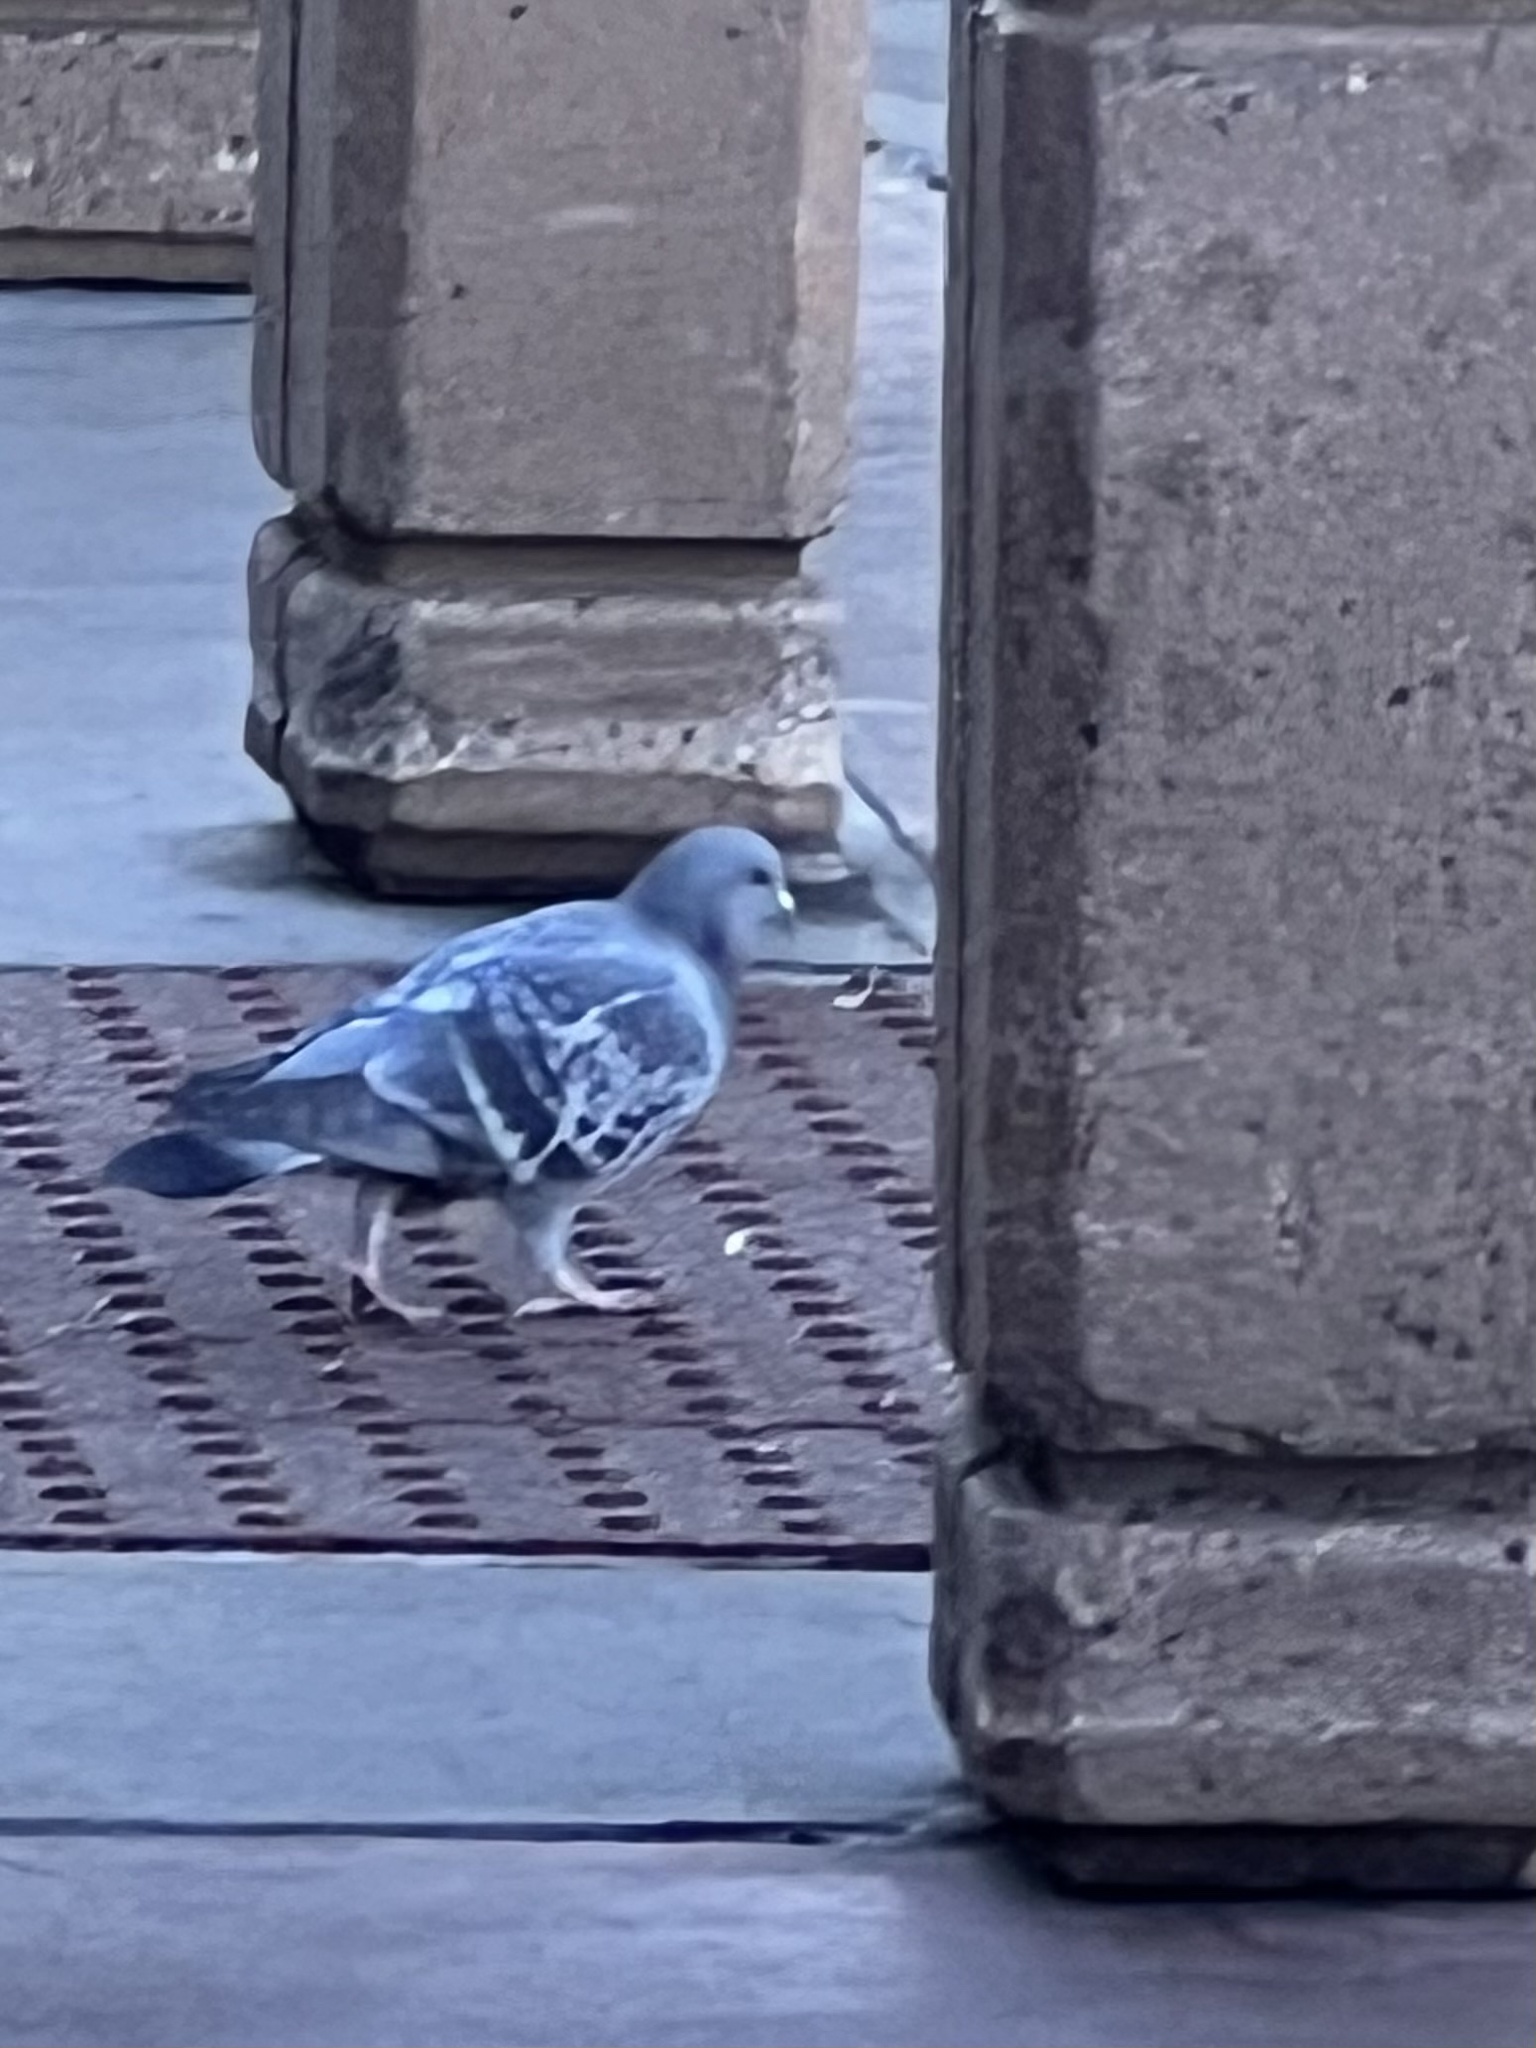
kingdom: Animalia
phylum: Chordata
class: Aves
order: Columbiformes
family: Columbidae
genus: Columba
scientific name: Columba livia
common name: Rock pigeon
